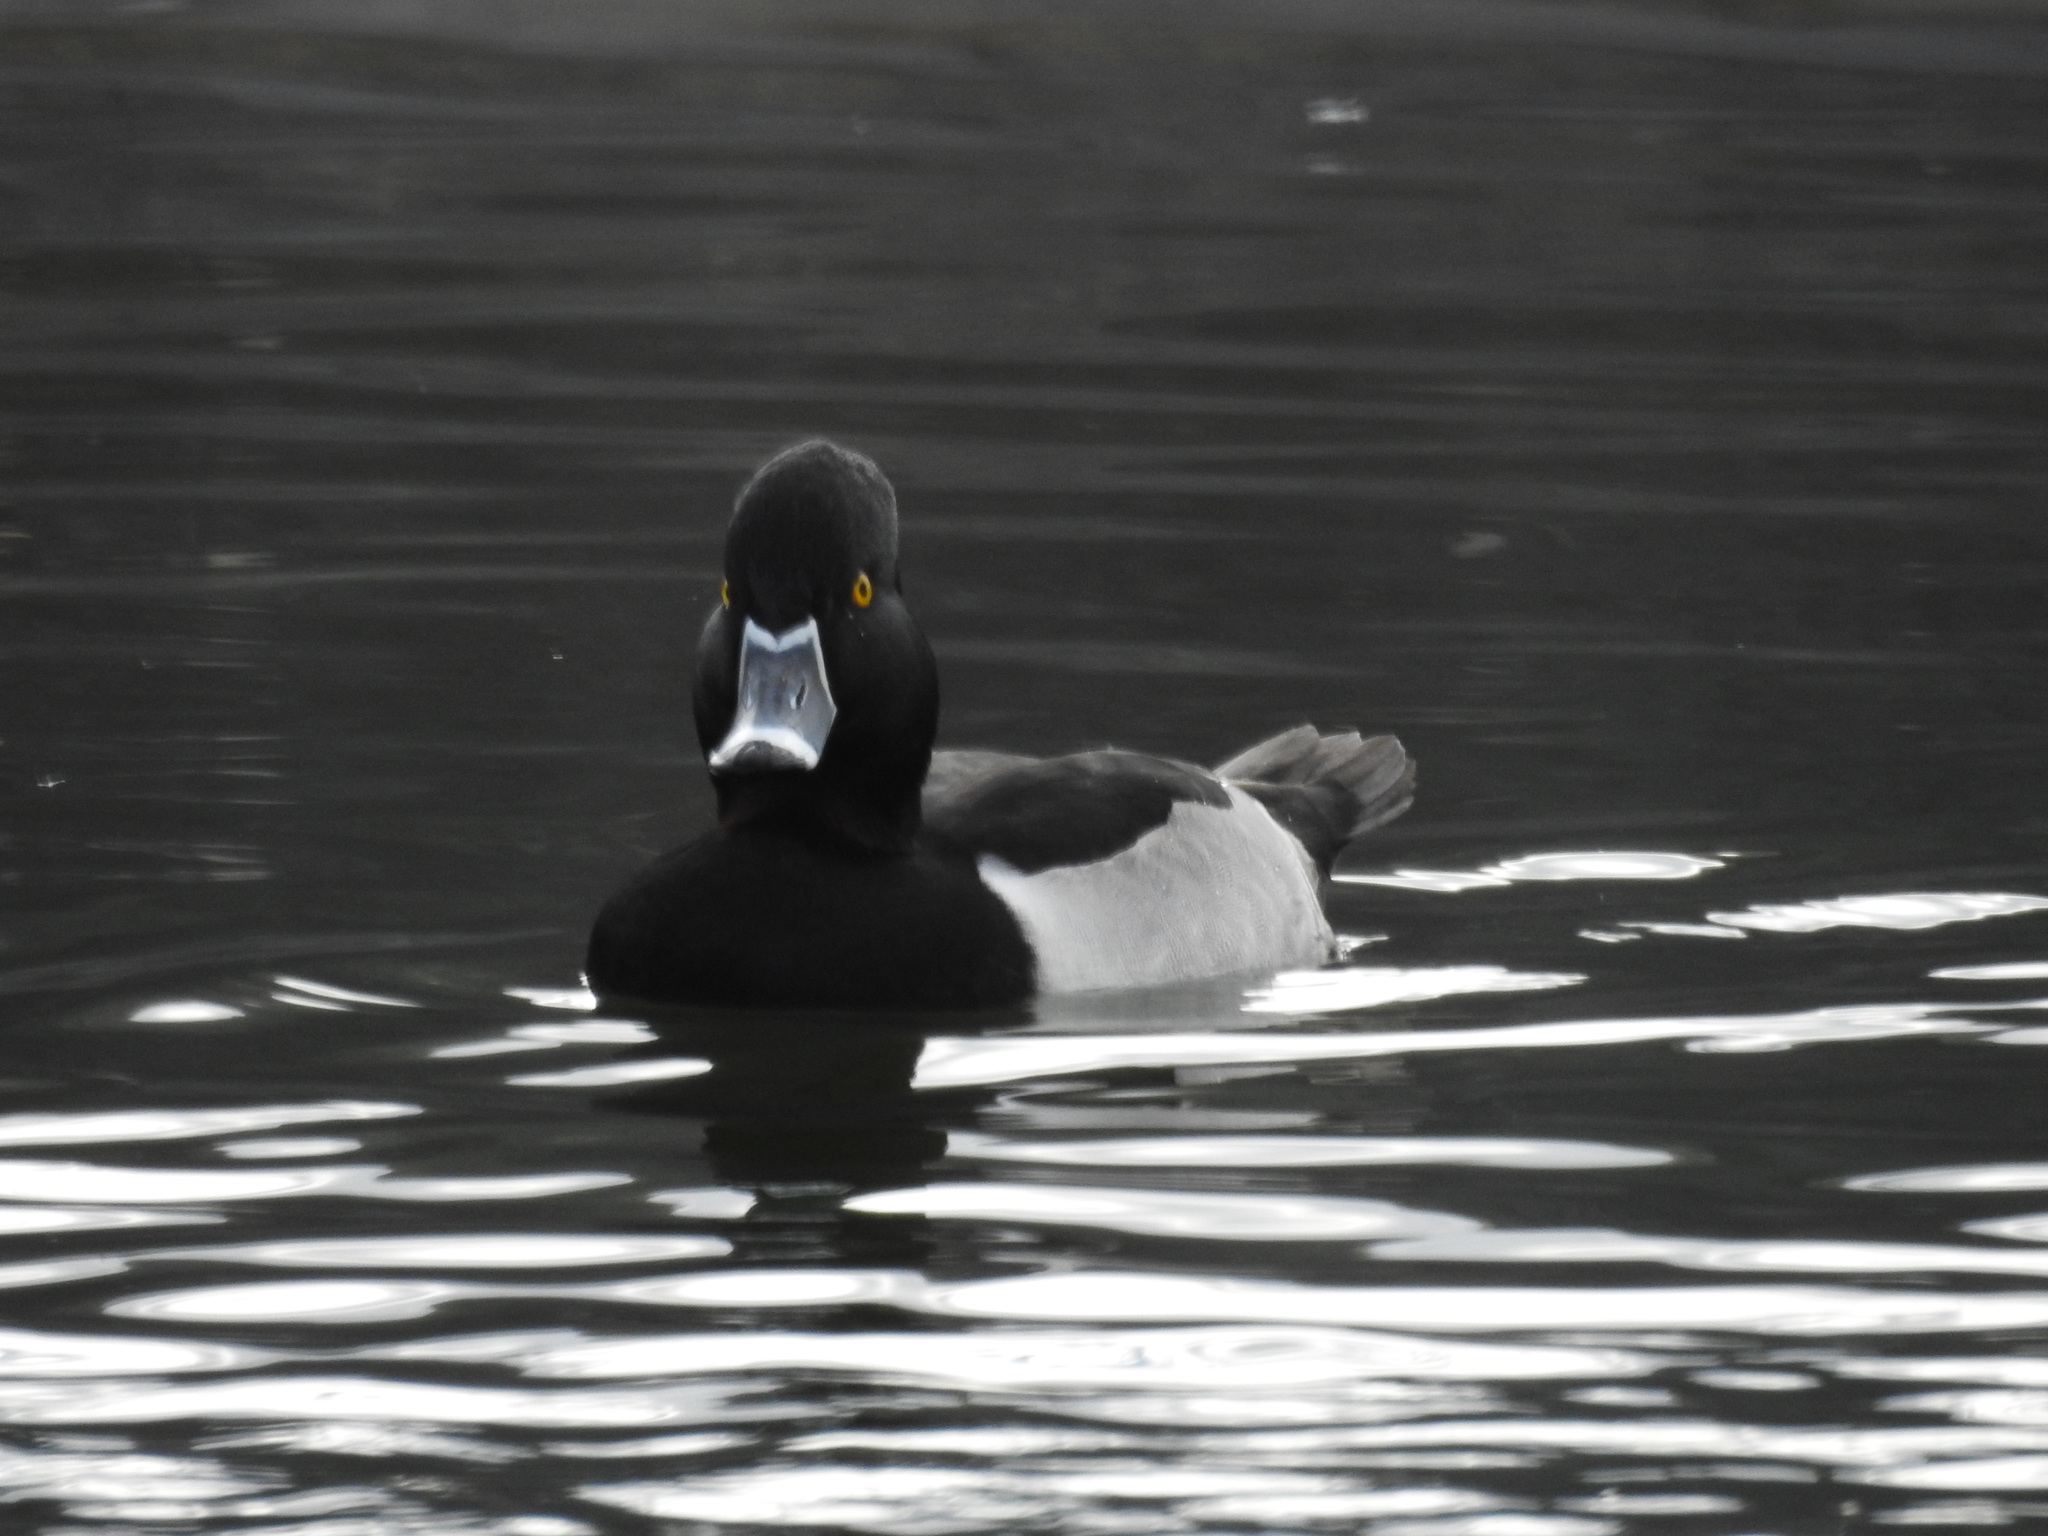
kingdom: Animalia
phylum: Chordata
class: Aves
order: Anseriformes
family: Anatidae
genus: Aythya
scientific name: Aythya collaris
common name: Ring-necked duck
